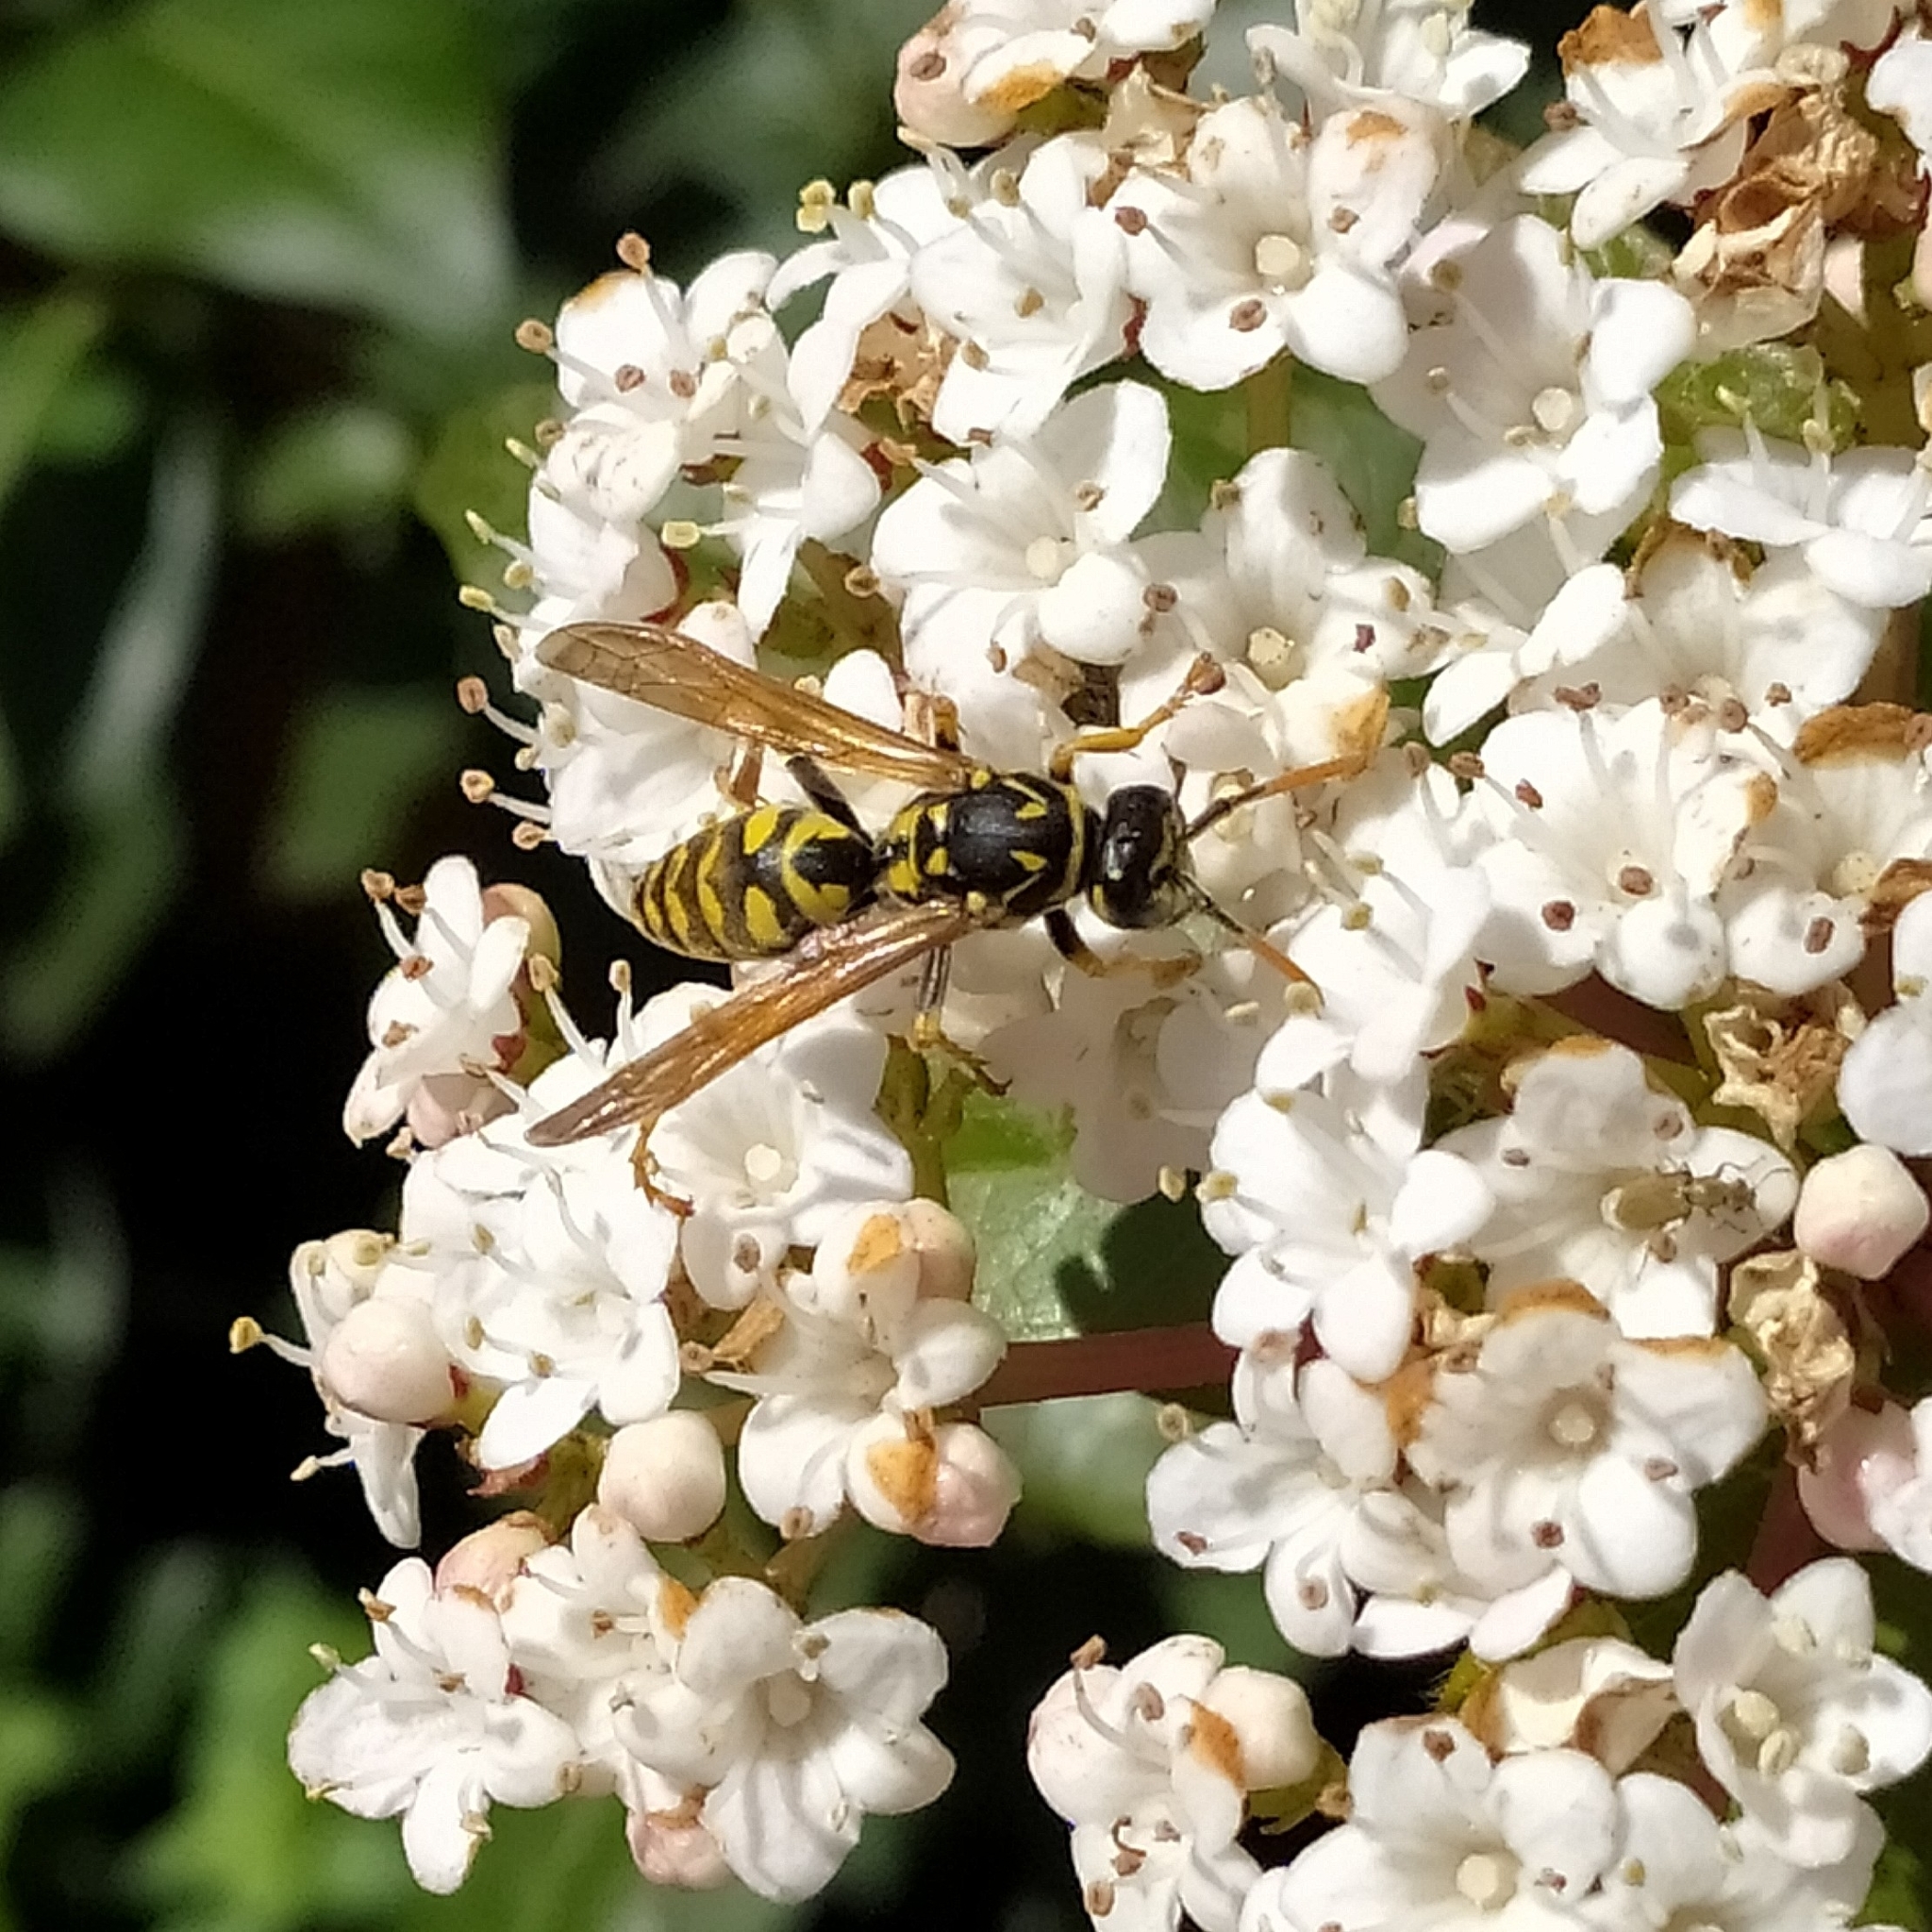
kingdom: Animalia
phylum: Arthropoda
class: Insecta
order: Hymenoptera
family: Eumenidae
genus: Polistes
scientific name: Polistes dominula
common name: Paper wasp
